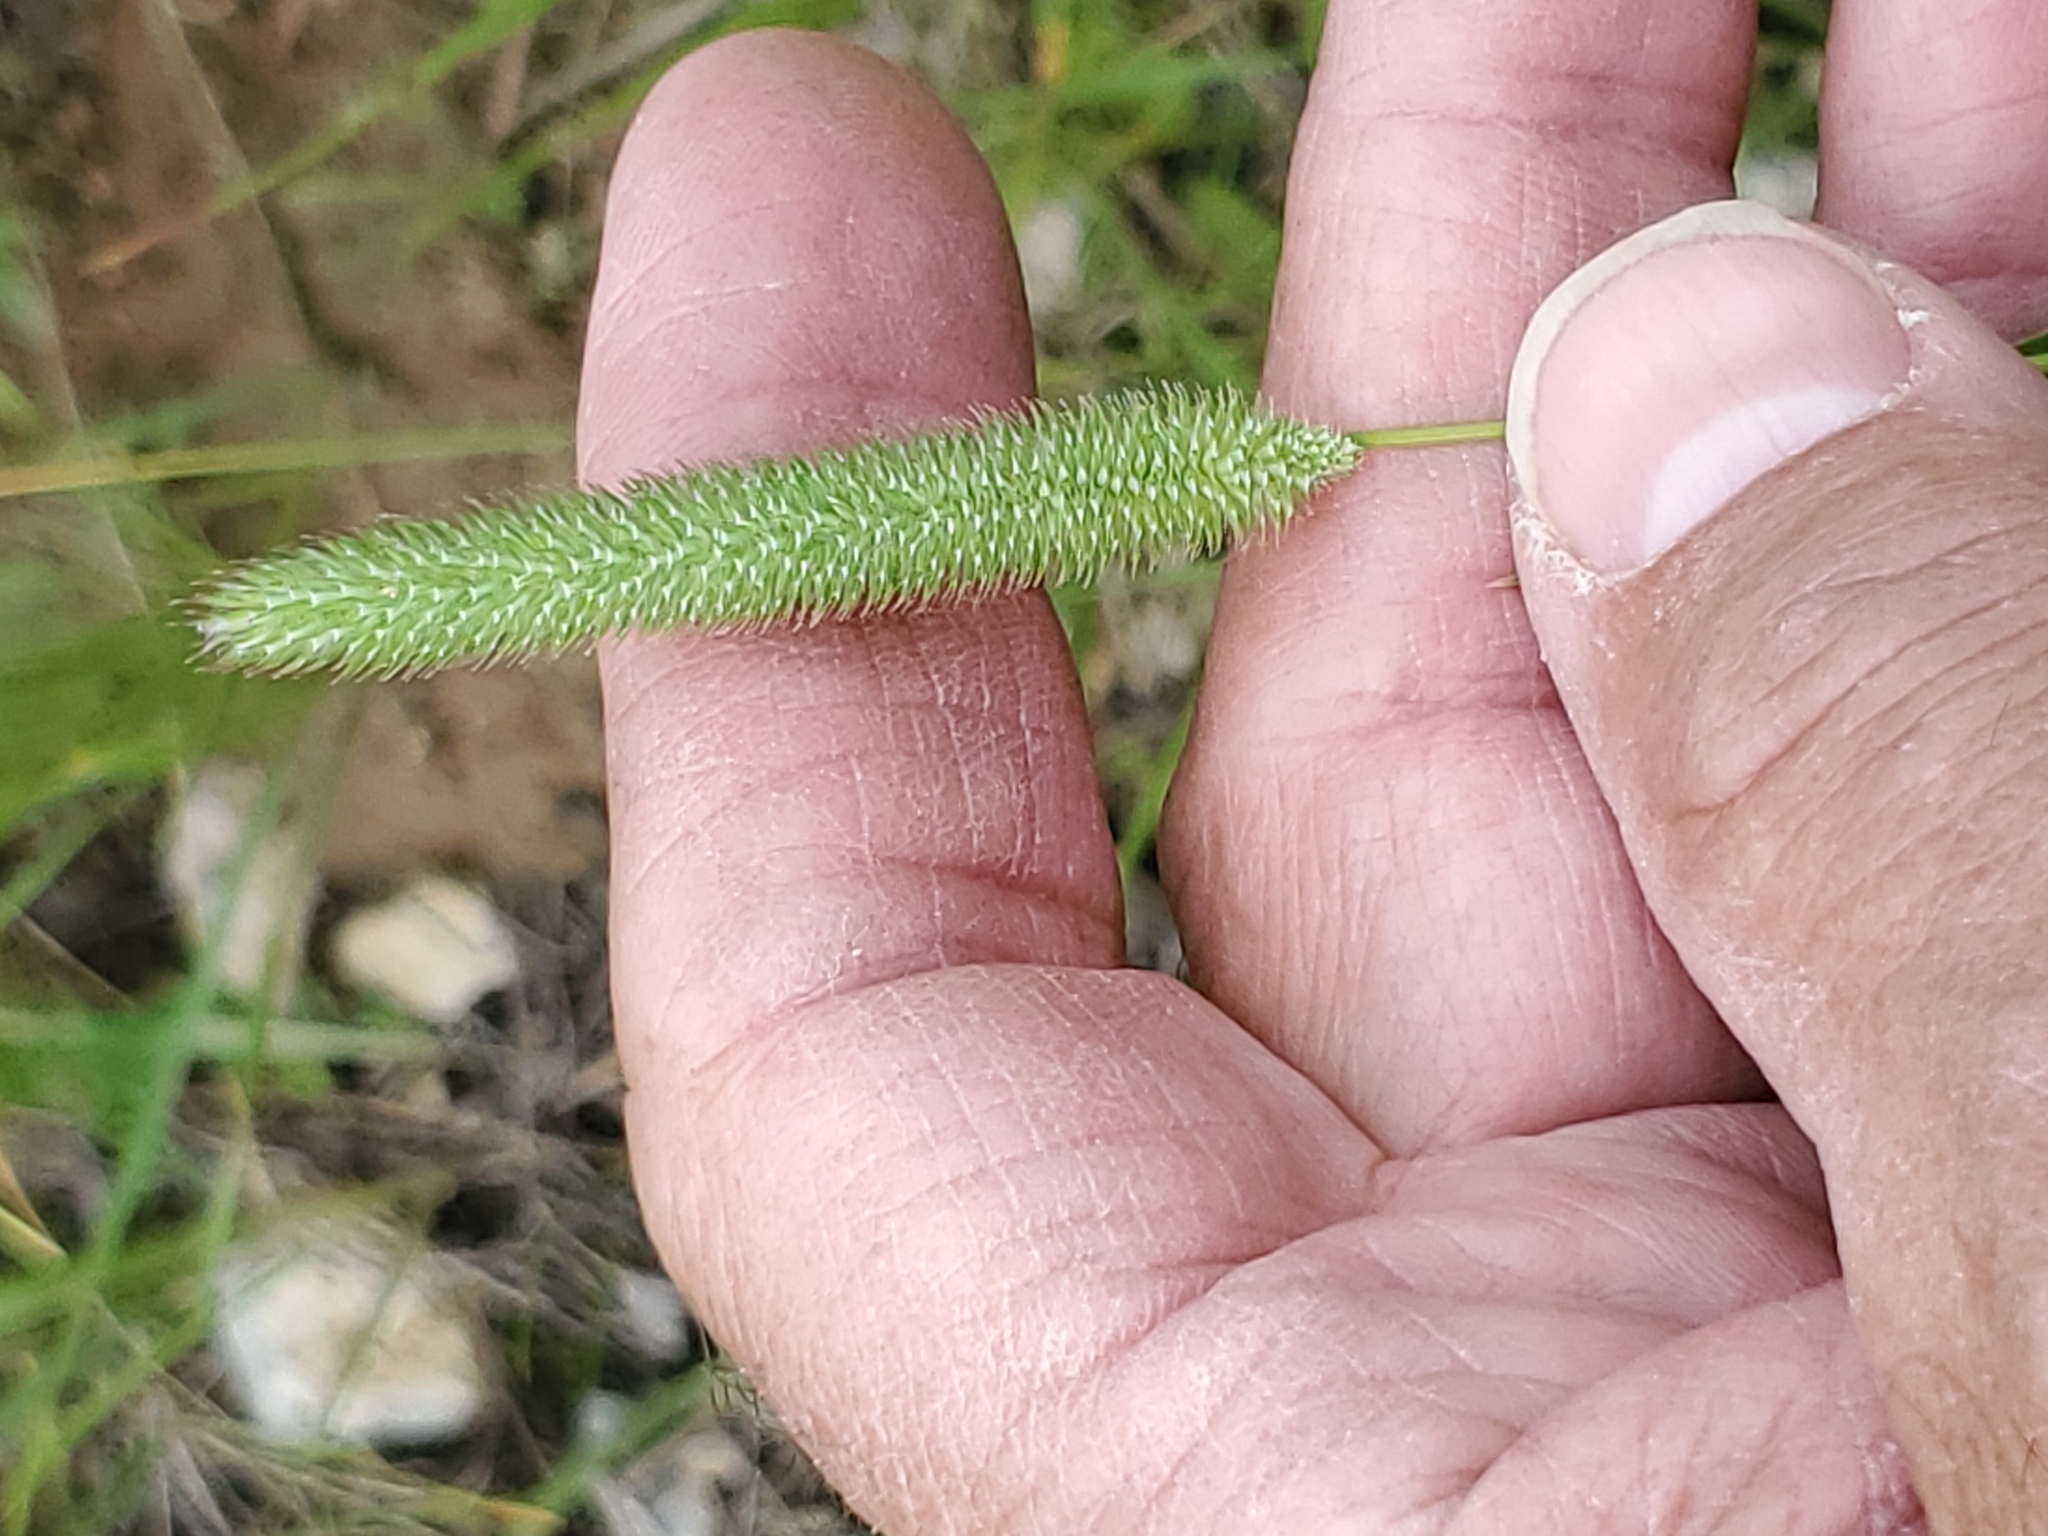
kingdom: Plantae
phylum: Tracheophyta
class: Liliopsida
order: Poales
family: Poaceae
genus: Phleum
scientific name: Phleum pratense
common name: Timothy grass
